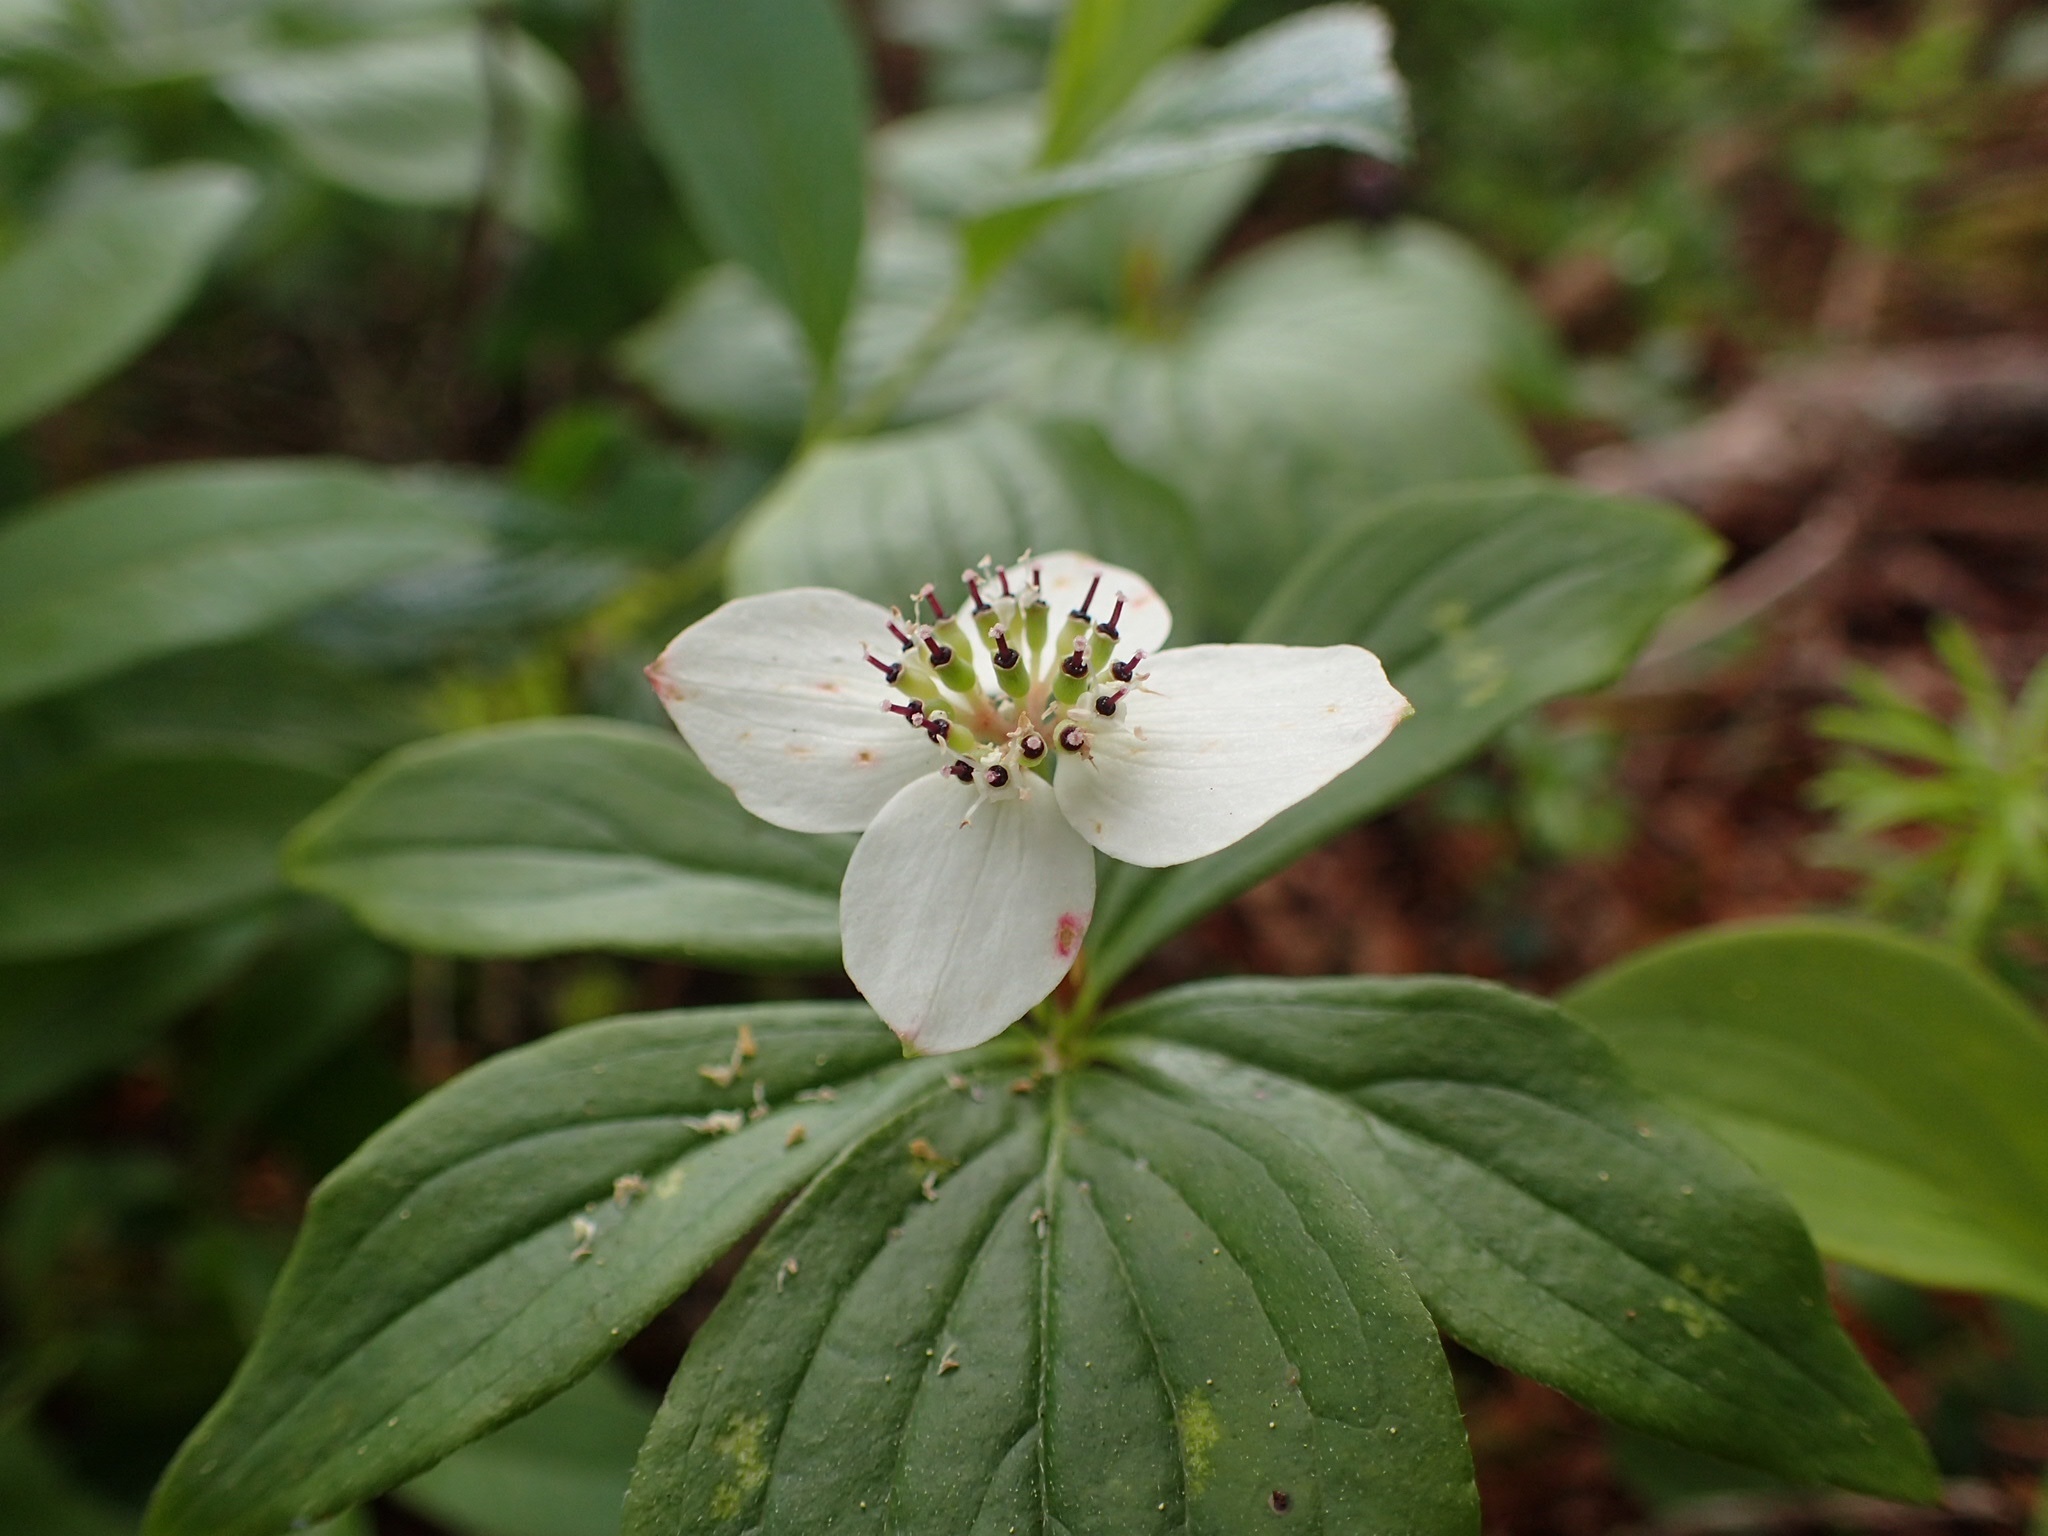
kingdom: Plantae
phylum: Tracheophyta
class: Magnoliopsida
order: Cornales
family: Cornaceae
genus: Cornus
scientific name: Cornus canadensis
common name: Creeping dogwood
